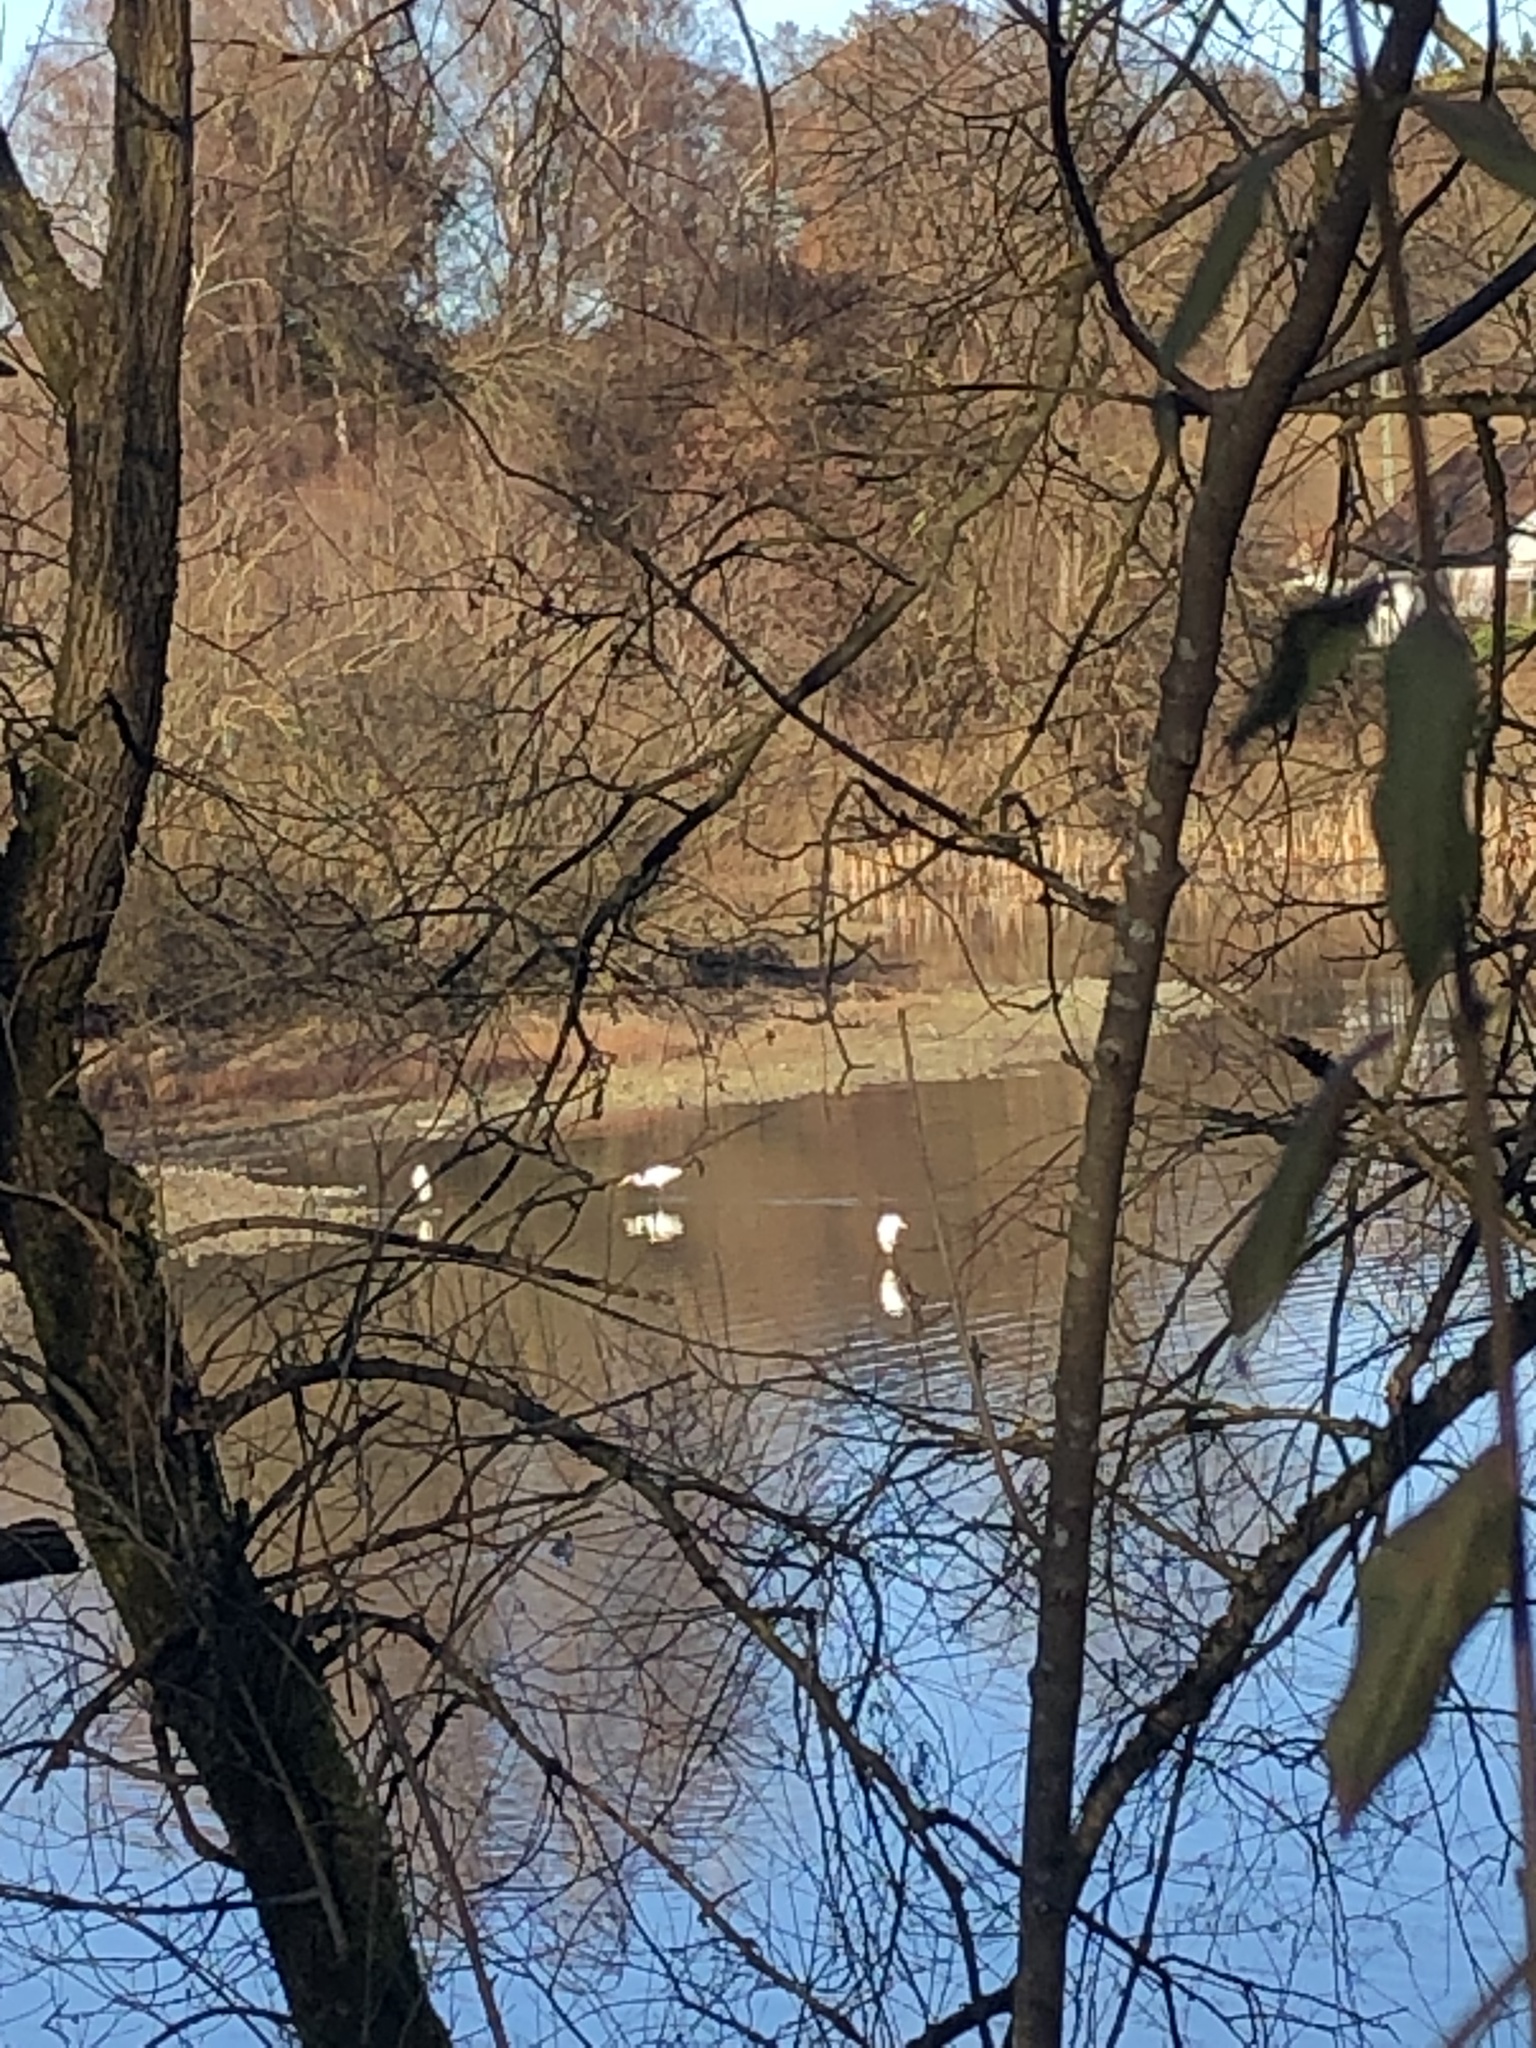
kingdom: Animalia
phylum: Chordata
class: Aves
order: Pelecaniformes
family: Ardeidae
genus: Ardea
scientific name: Ardea alba
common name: Great egret
